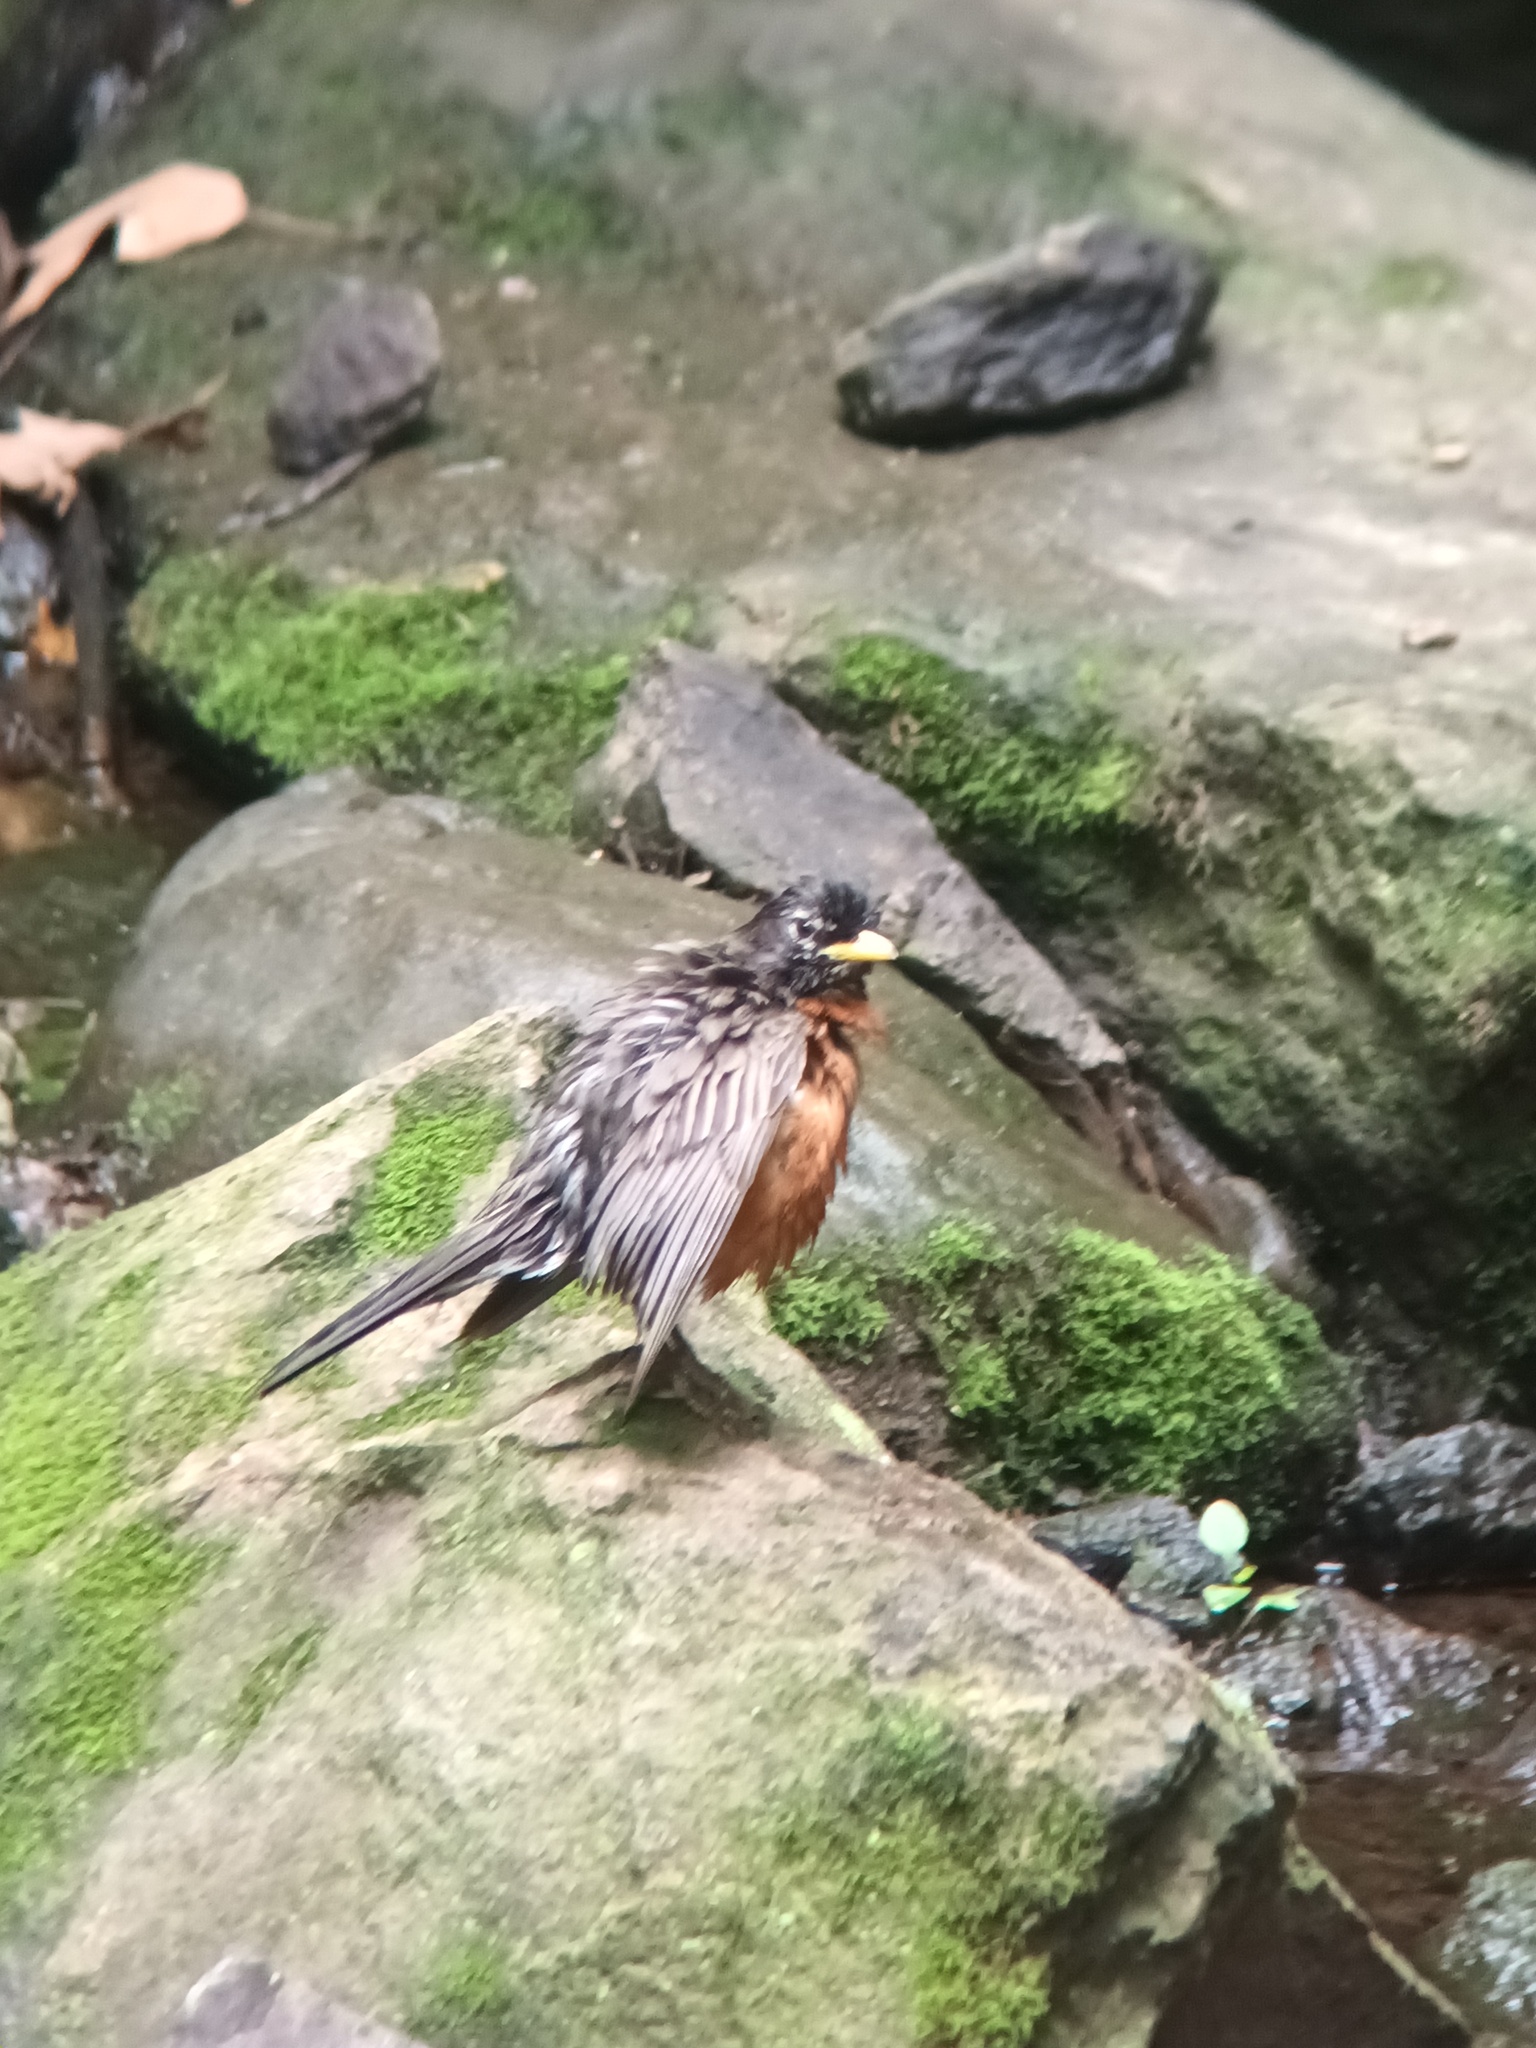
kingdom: Animalia
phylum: Chordata
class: Aves
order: Passeriformes
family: Turdidae
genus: Turdus
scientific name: Turdus migratorius
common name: American robin
